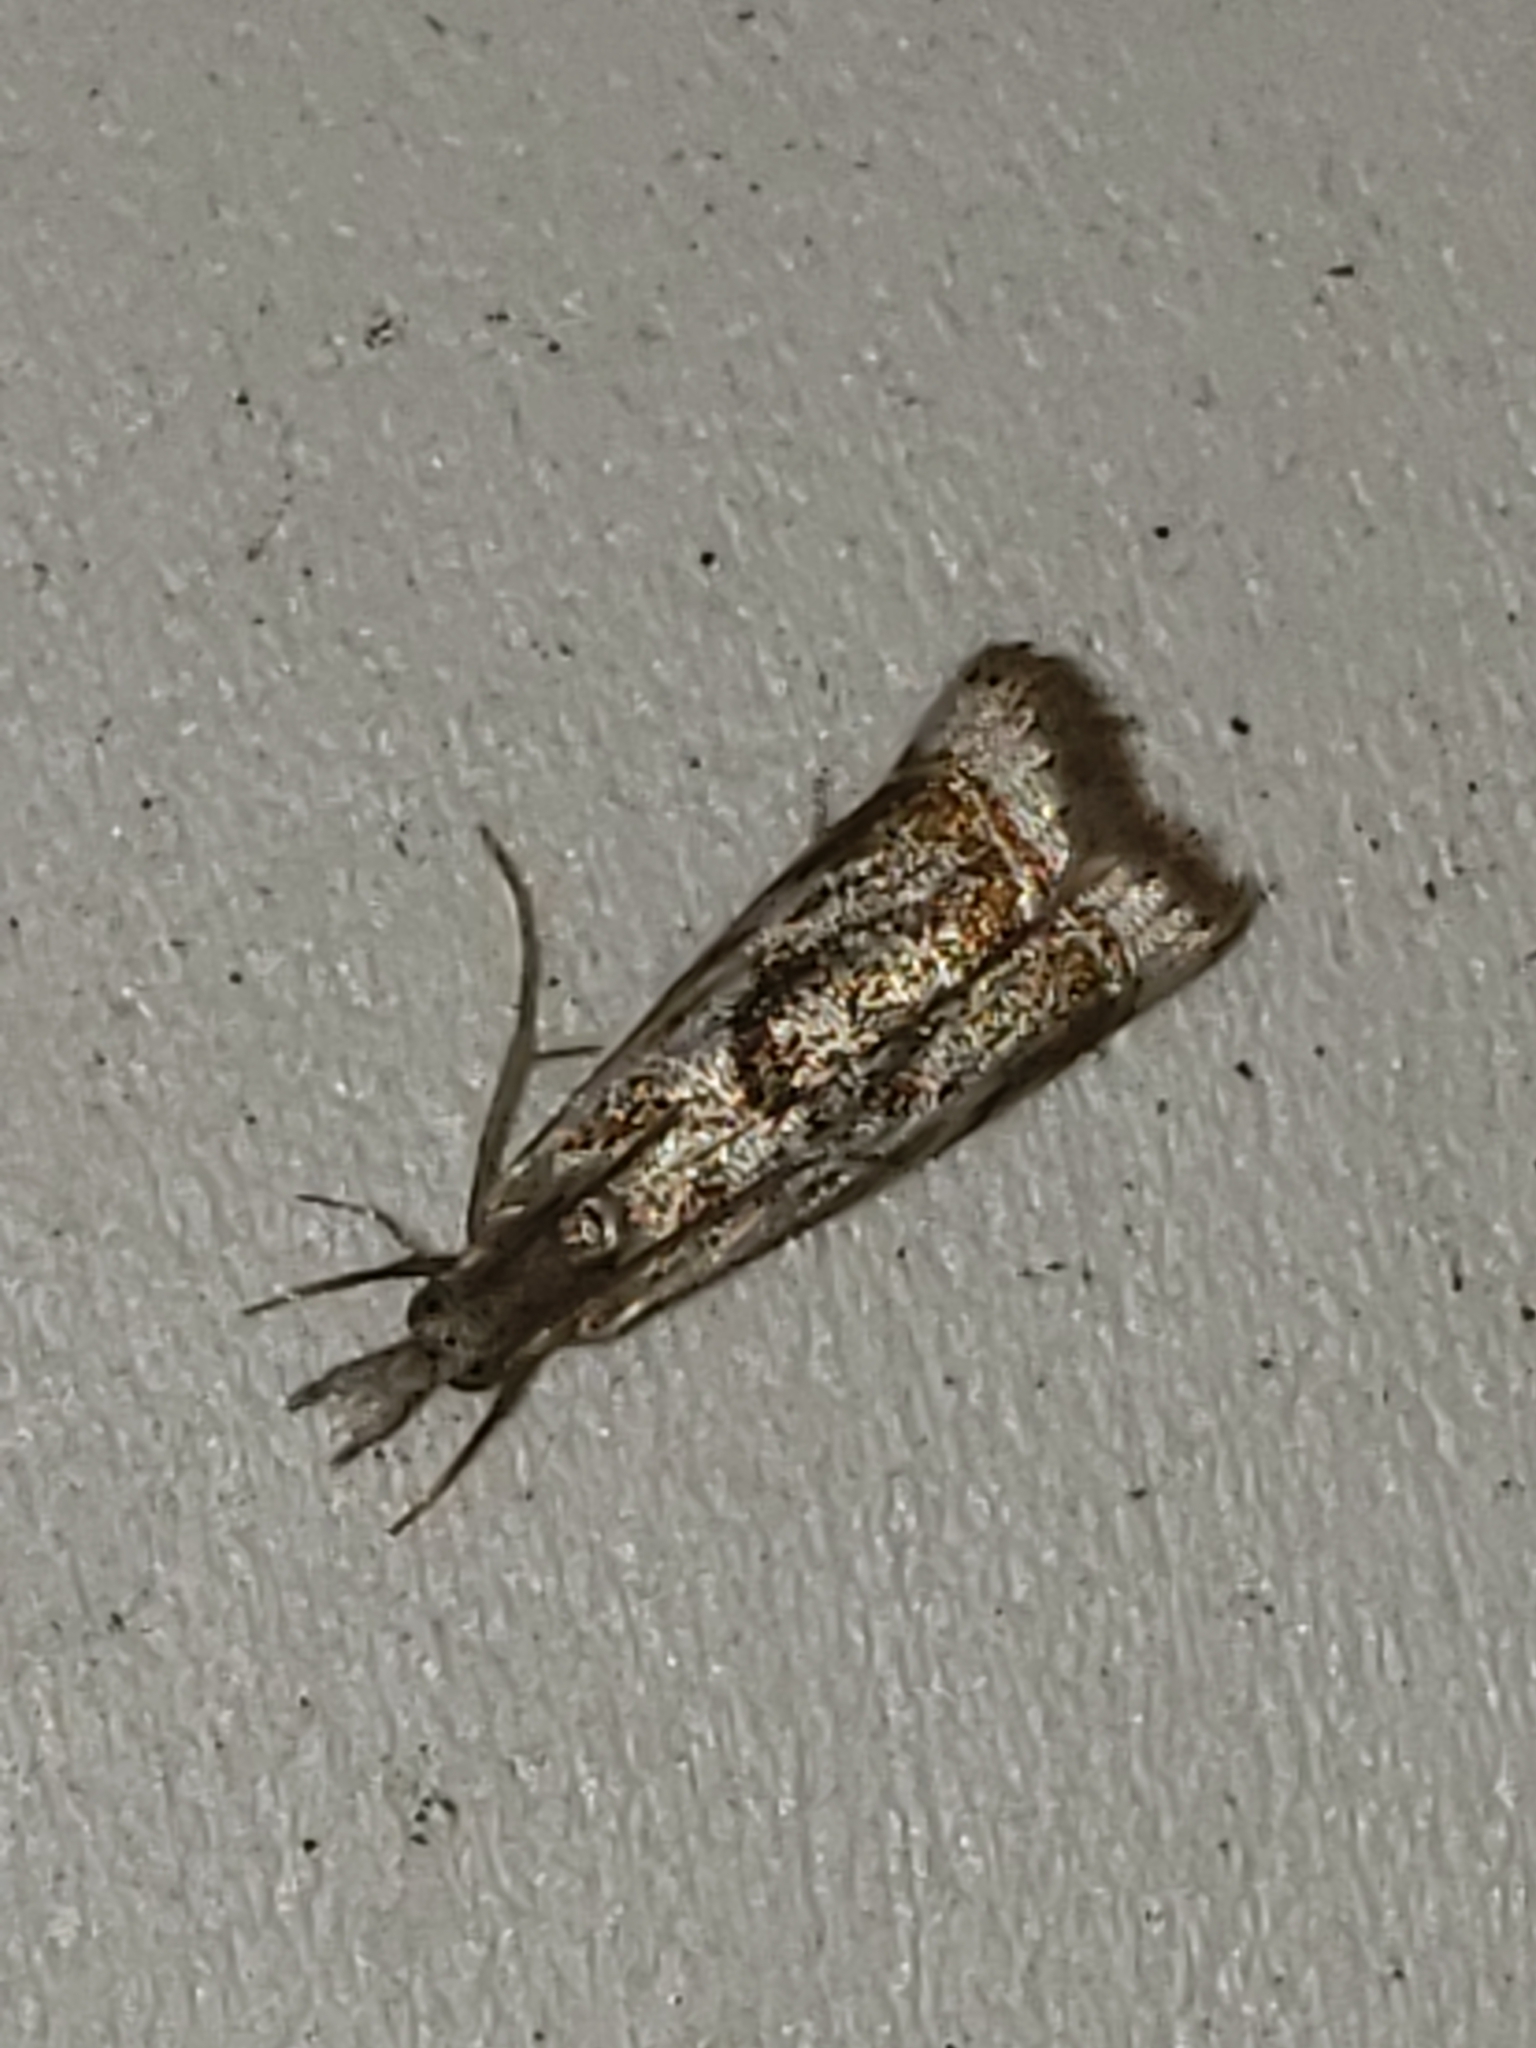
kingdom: Animalia
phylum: Arthropoda
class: Insecta
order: Lepidoptera
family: Crambidae
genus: Microcrambus
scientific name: Microcrambus elegans
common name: Elegant grass-veneer
